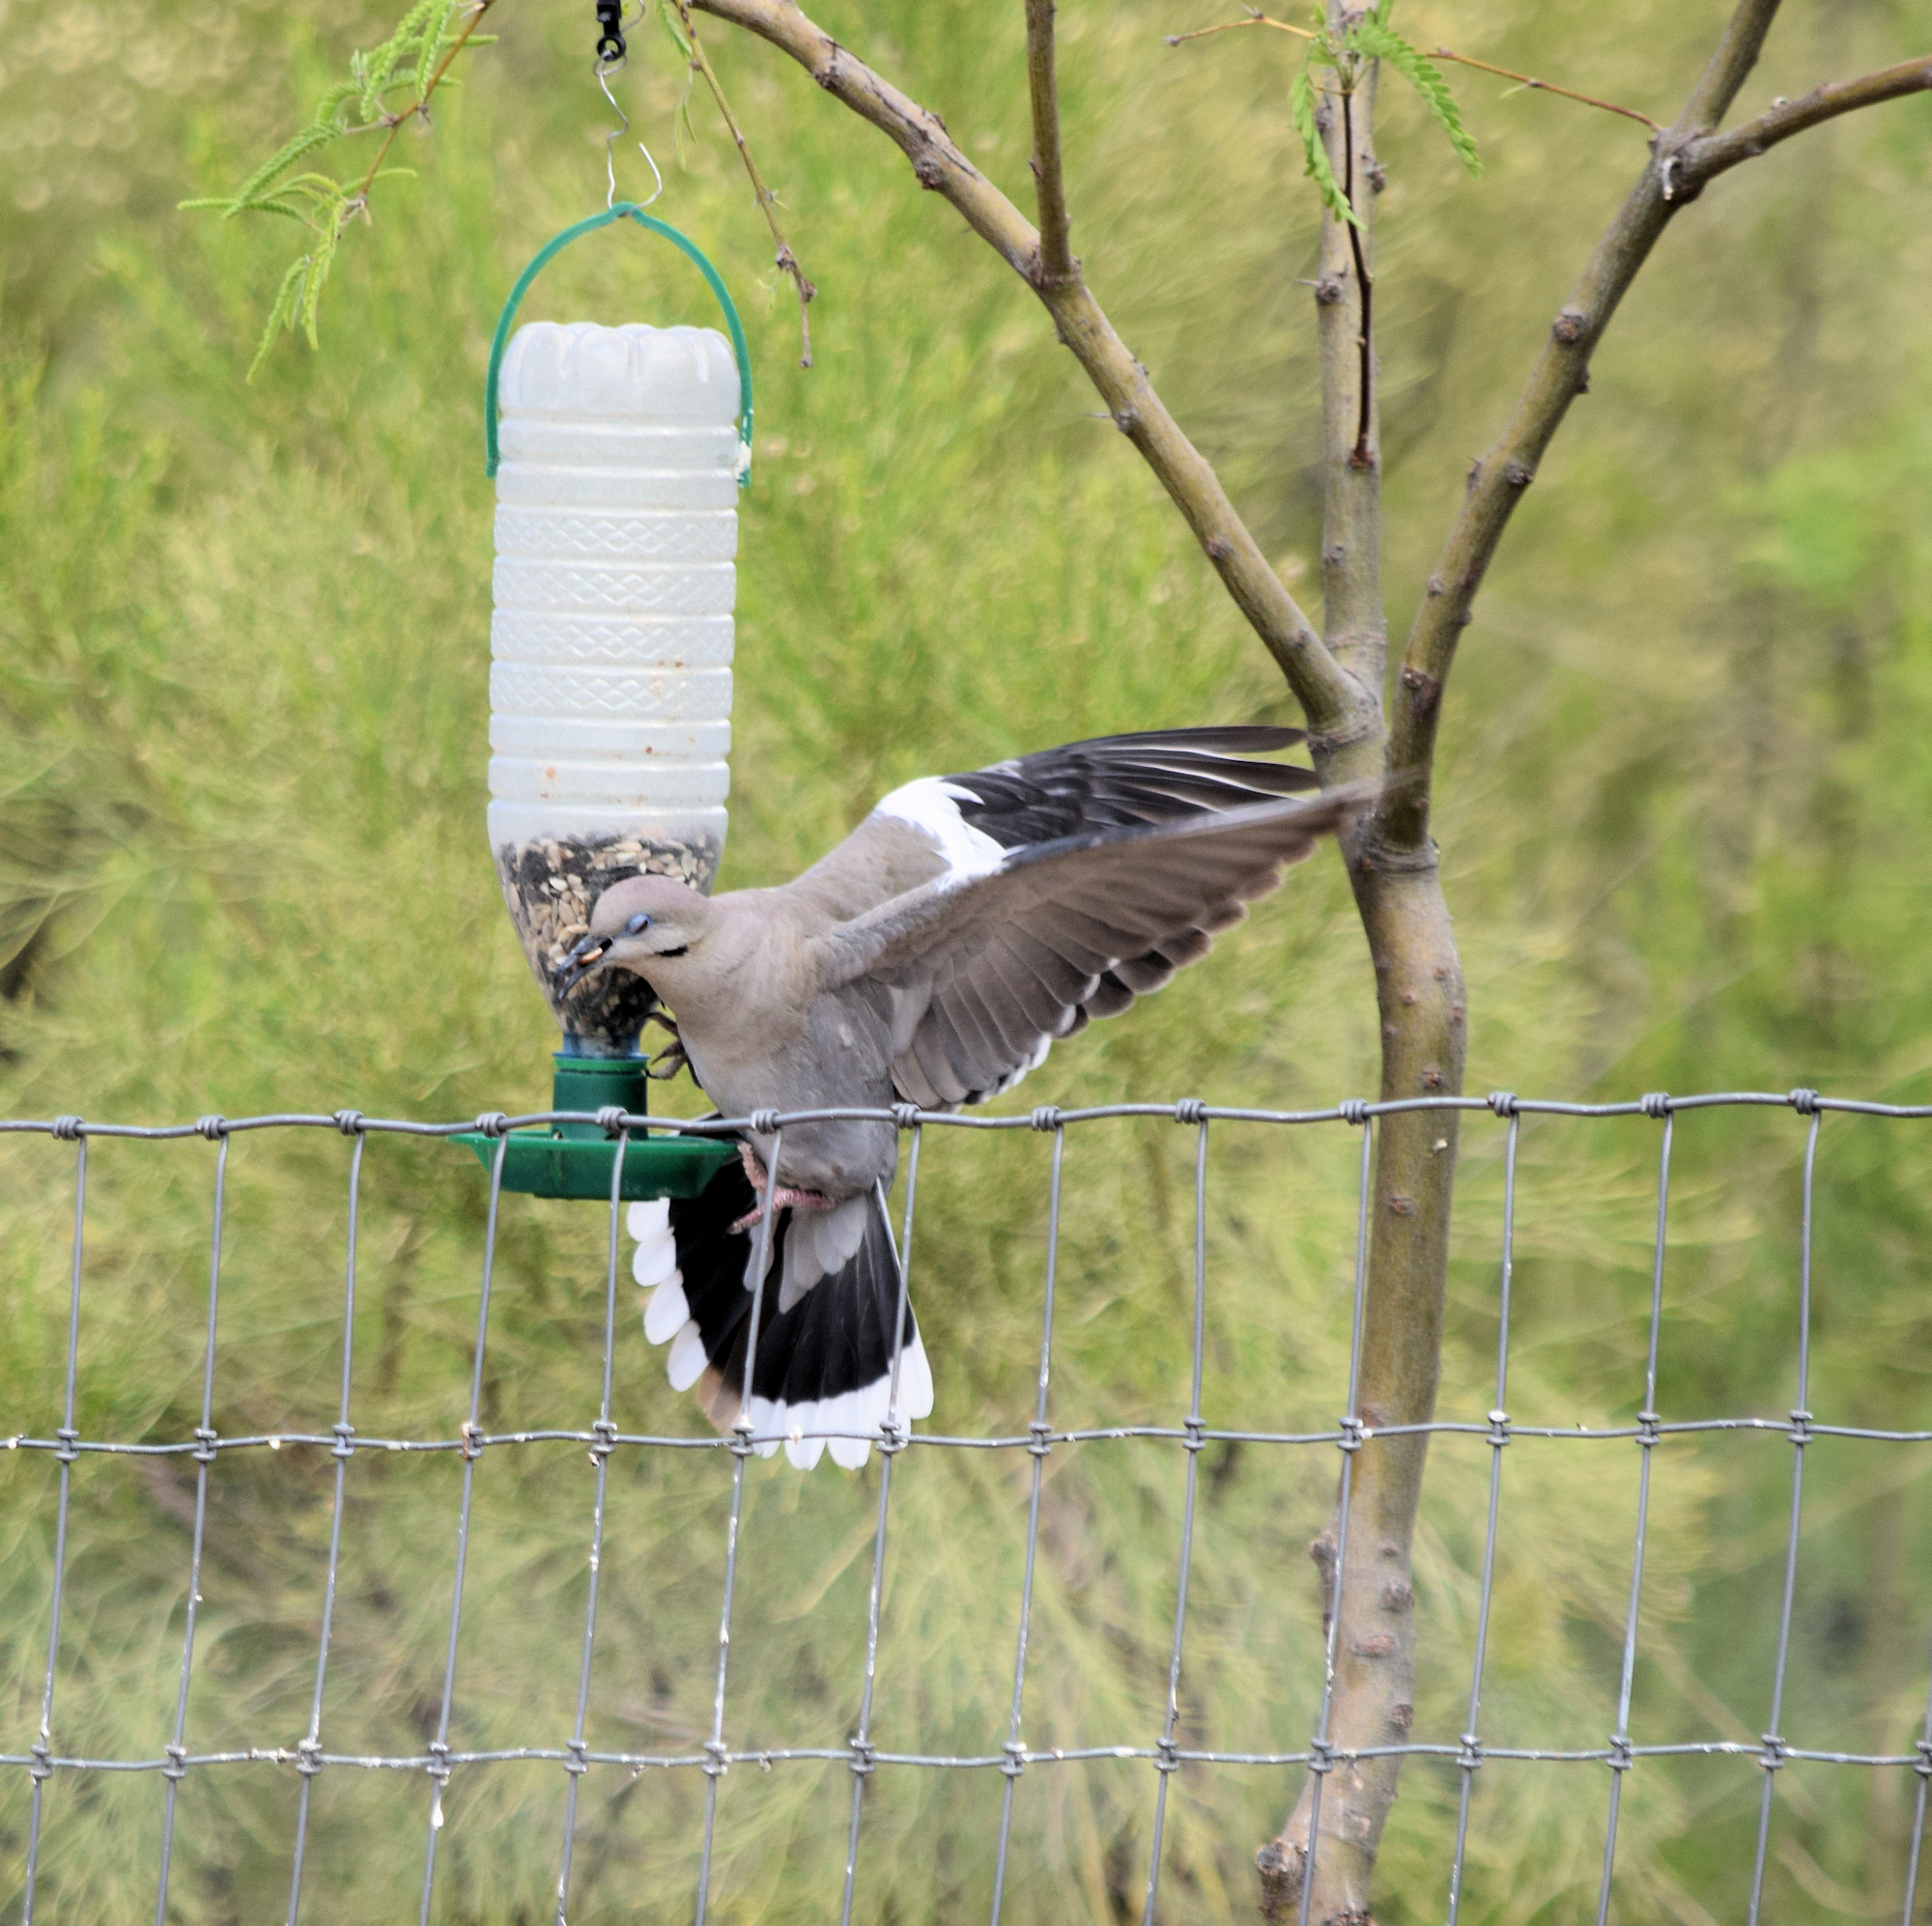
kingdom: Animalia
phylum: Chordata
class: Aves
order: Columbiformes
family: Columbidae
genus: Zenaida
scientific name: Zenaida asiatica
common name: White-winged dove
